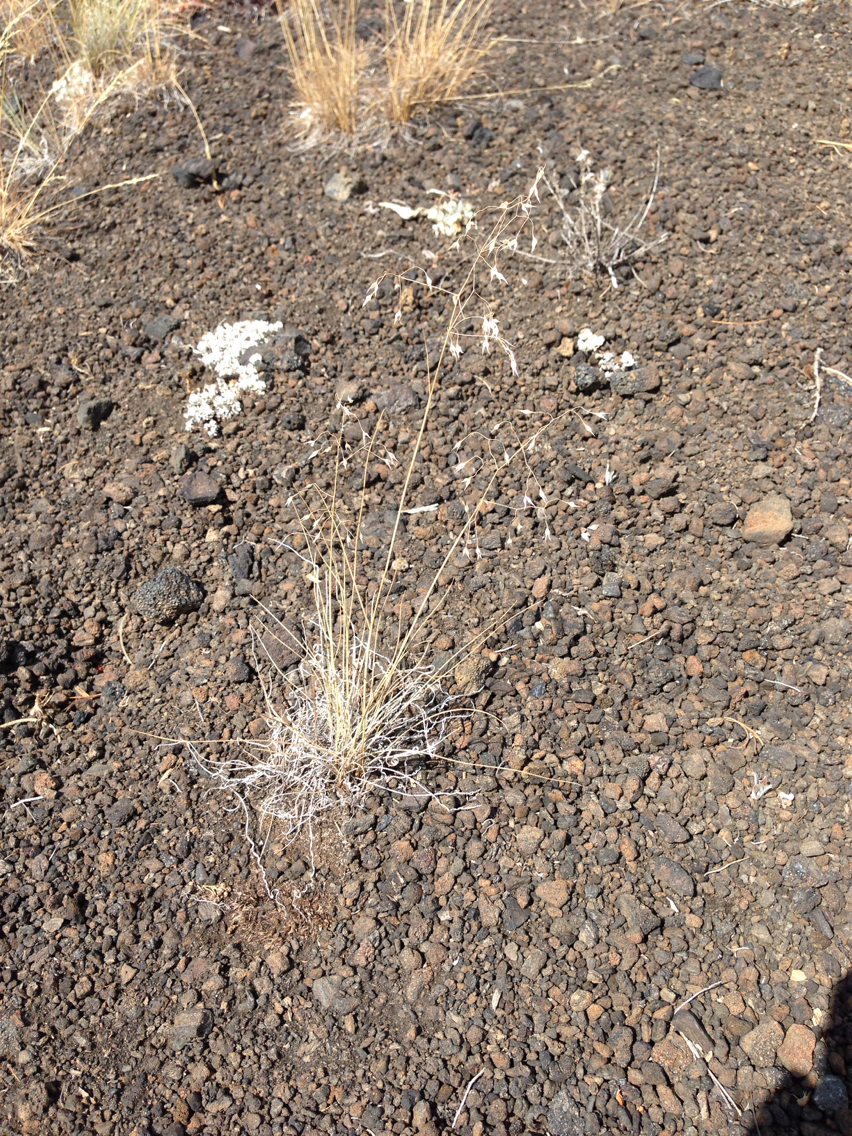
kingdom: Plantae
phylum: Tracheophyta
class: Liliopsida
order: Poales
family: Poaceae
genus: Eriocoma
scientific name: Eriocoma hymenoides
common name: Indian mountain ricegrass
